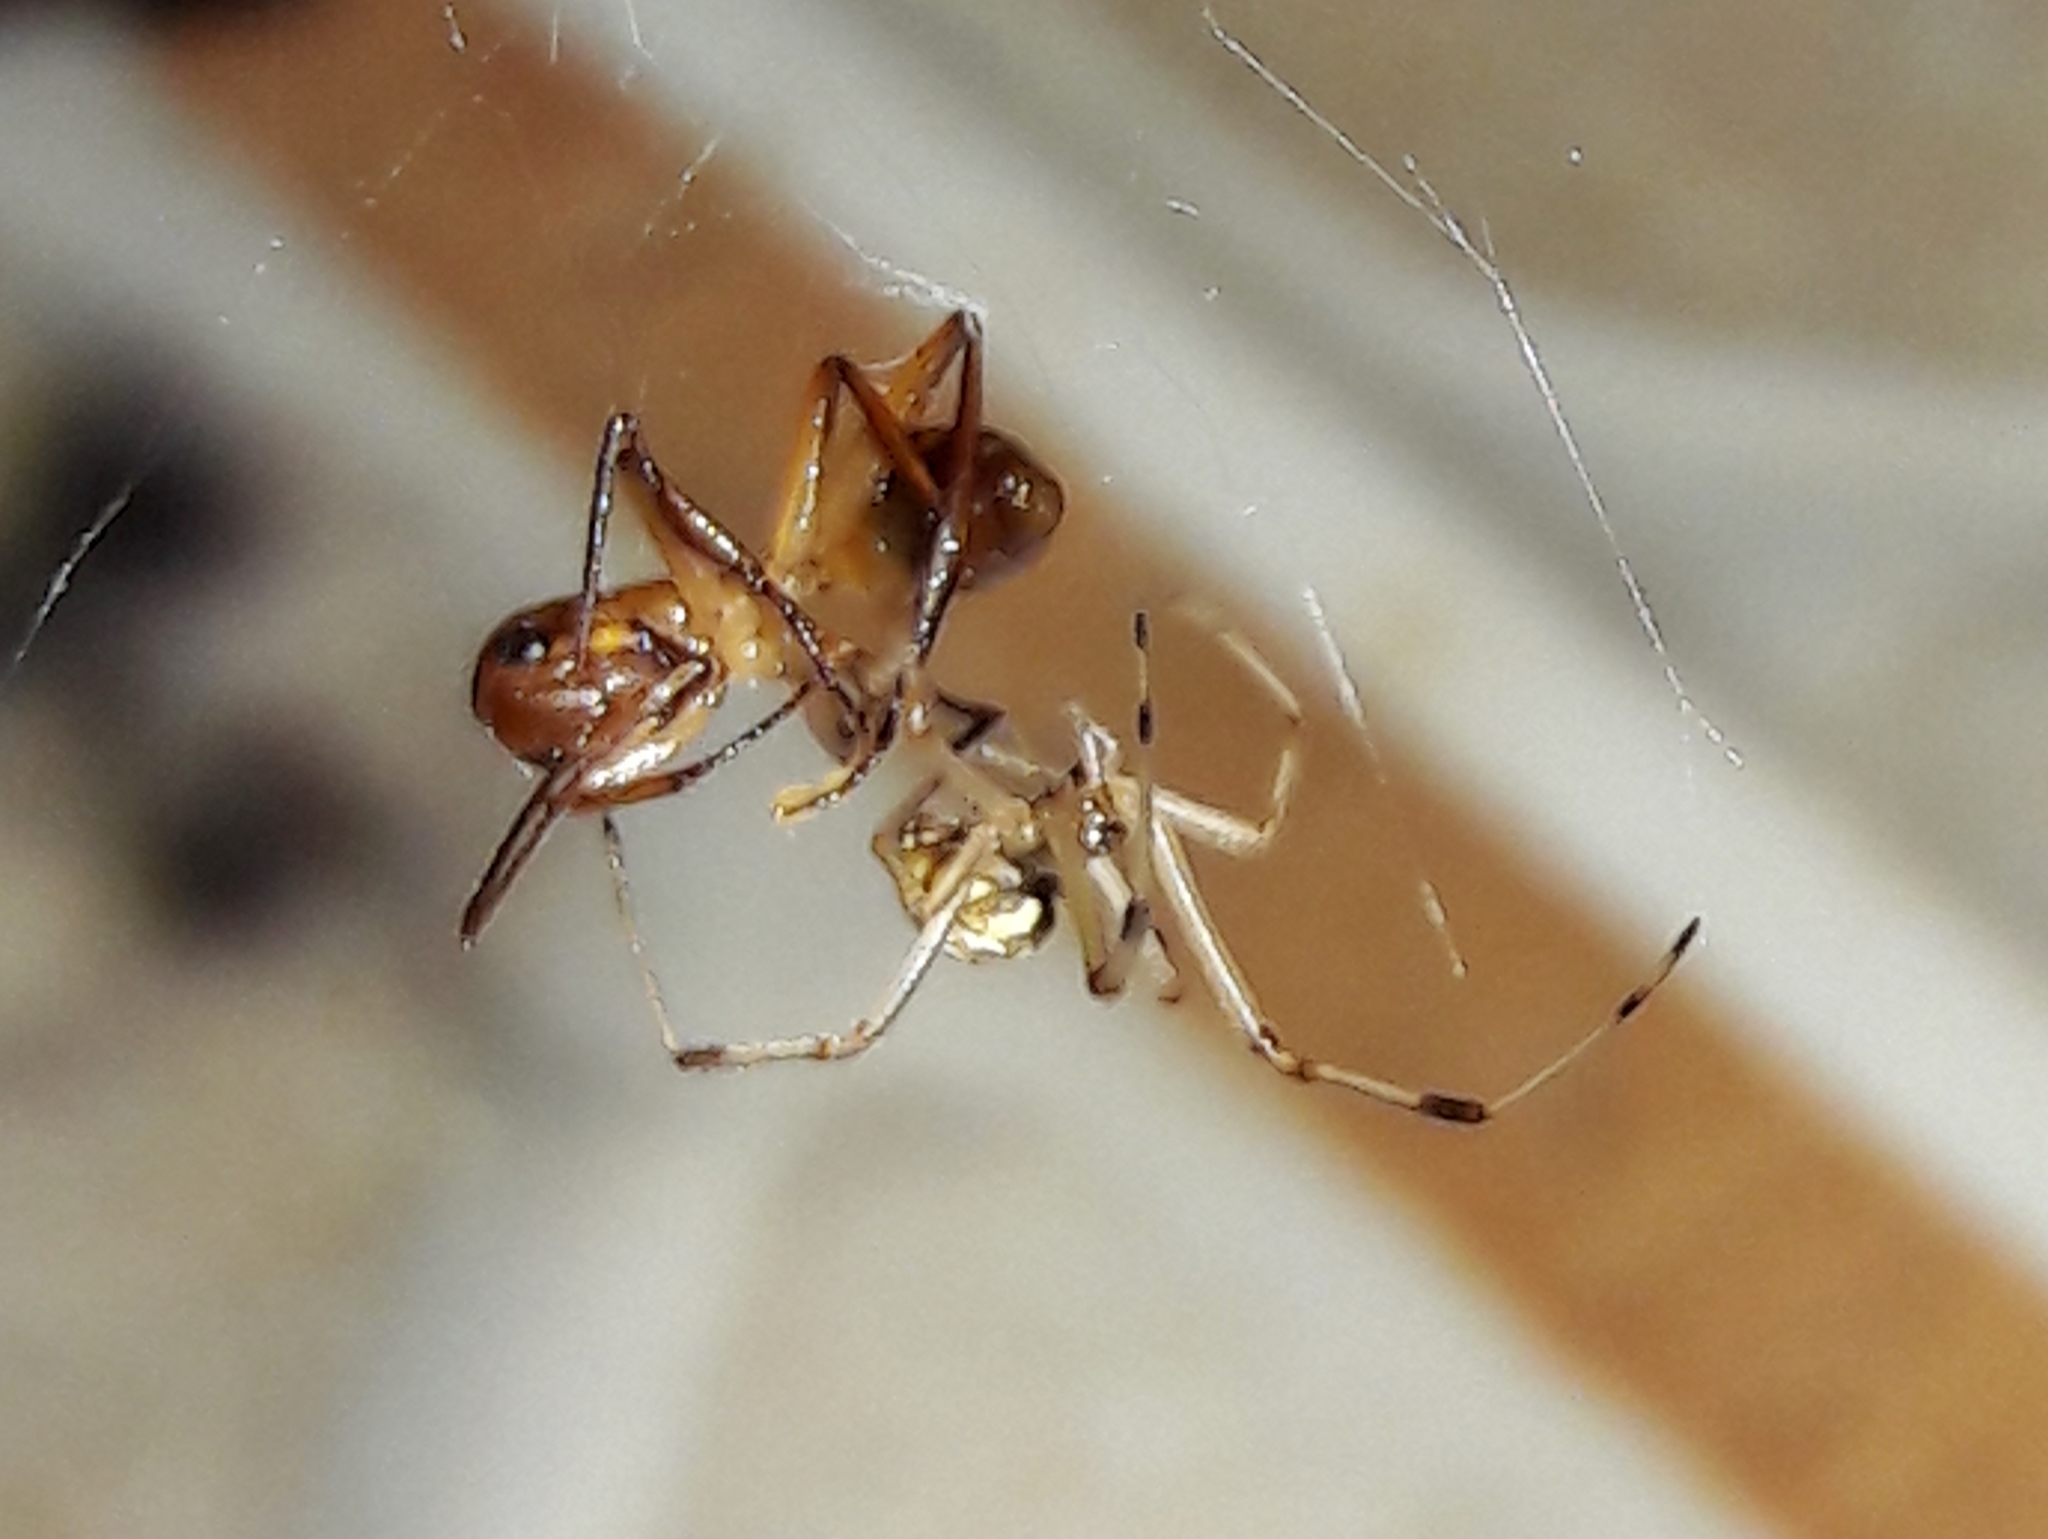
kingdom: Animalia
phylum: Arthropoda
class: Arachnida
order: Araneae
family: Theridiidae
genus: Latrodectus
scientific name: Latrodectus geometricus
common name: Brown widow spider
